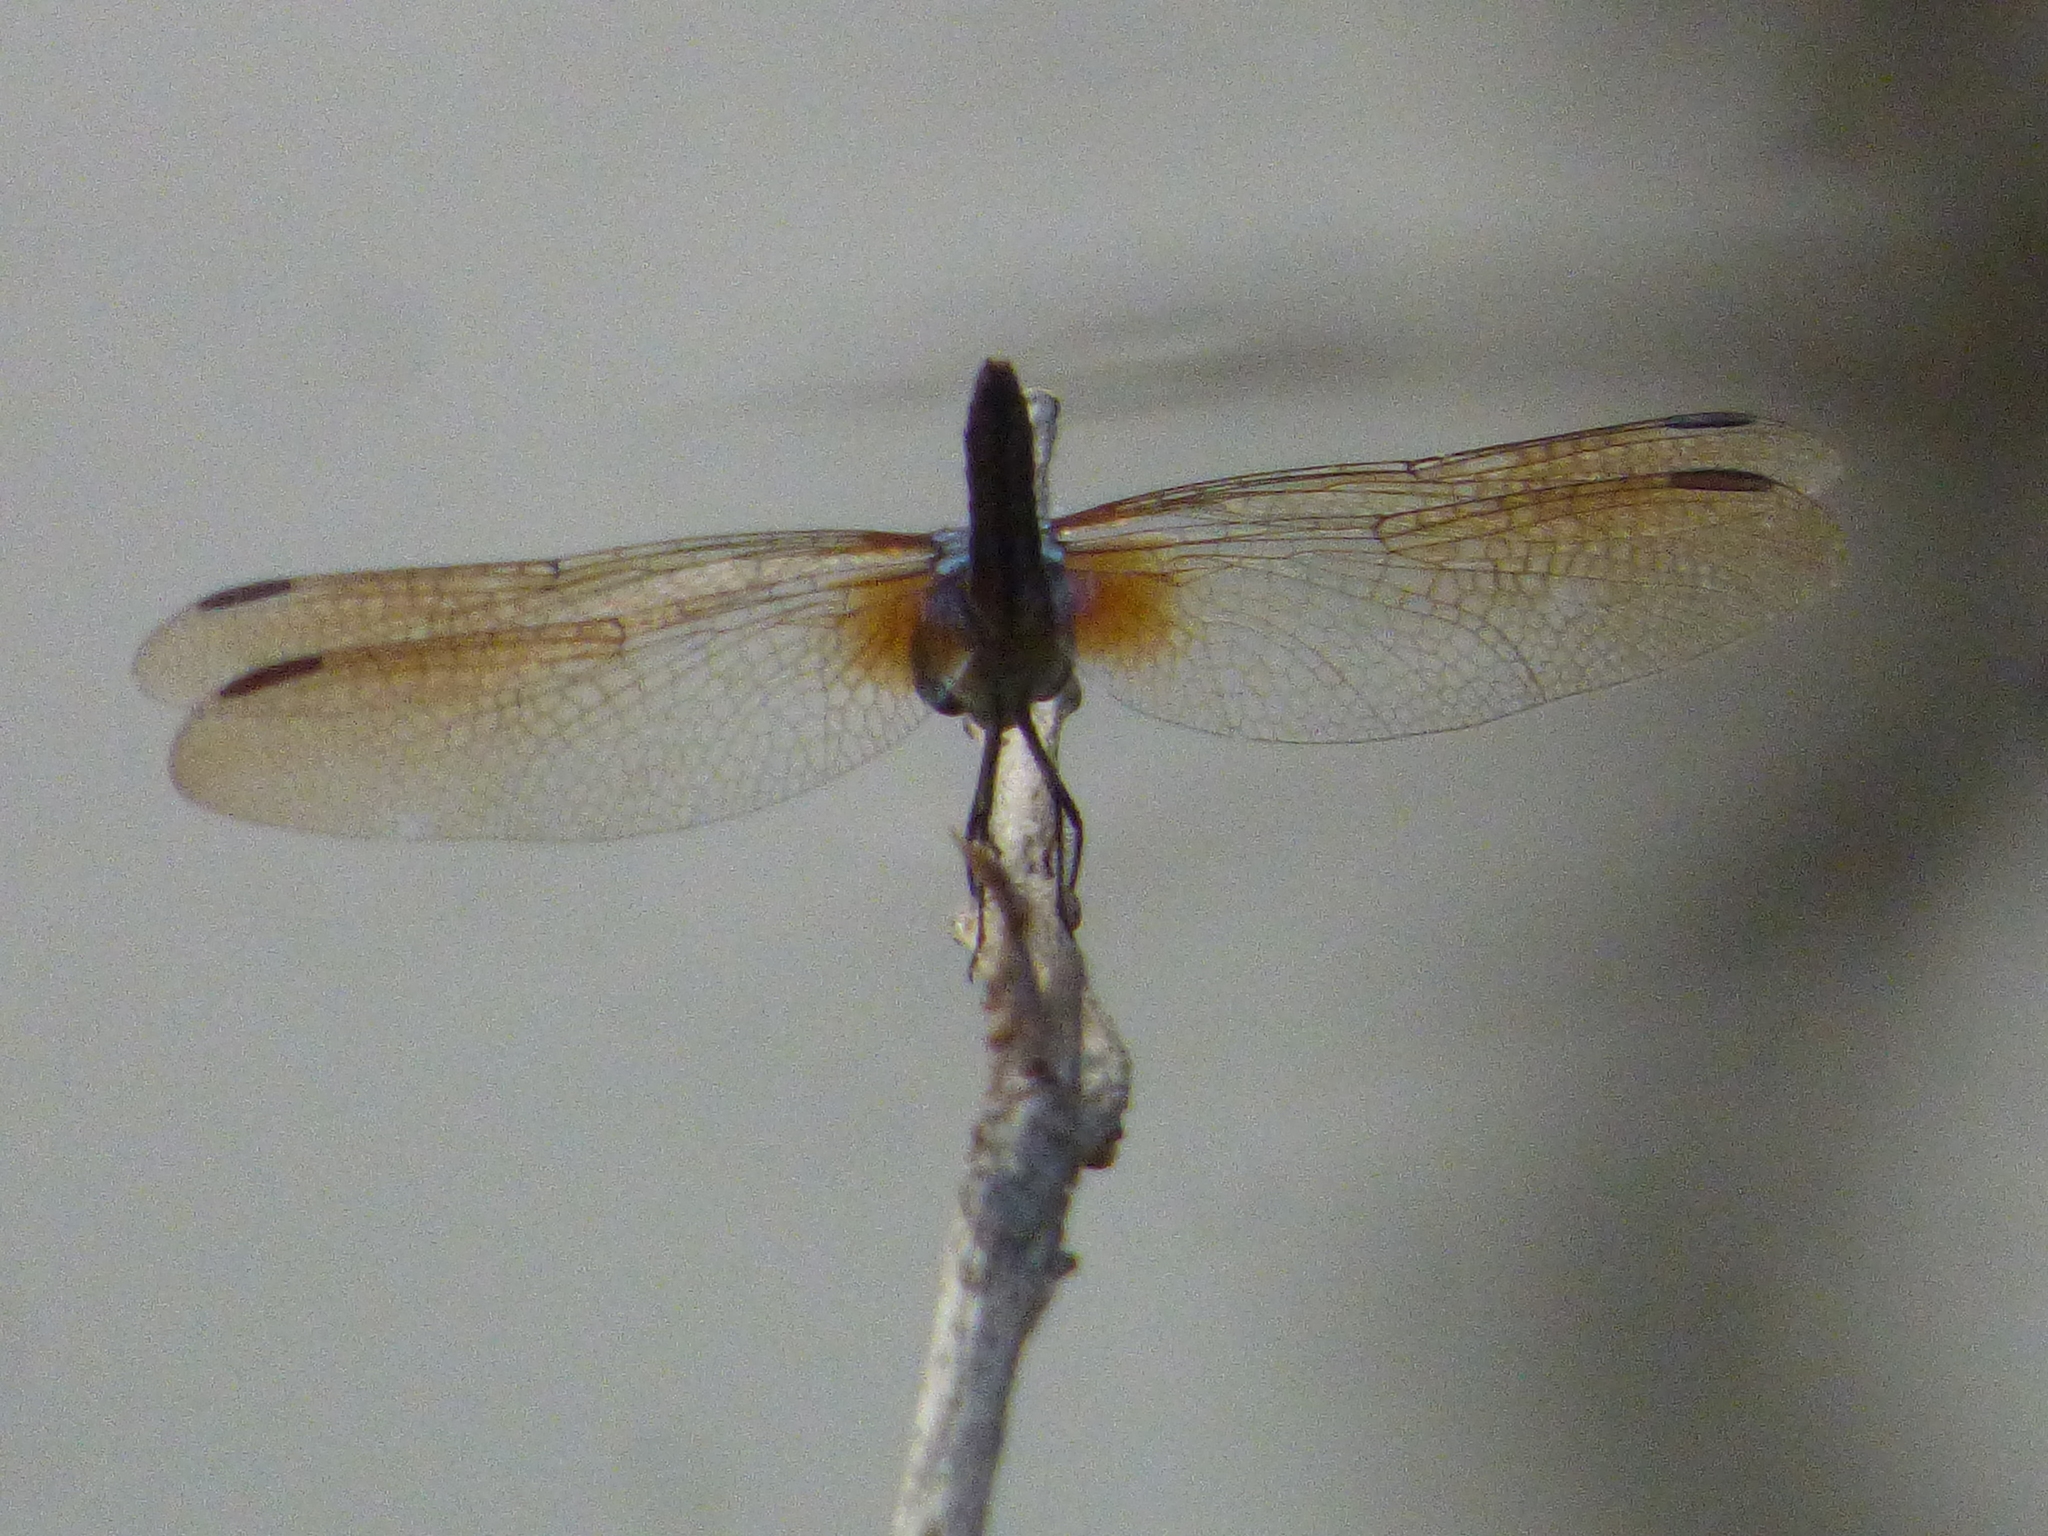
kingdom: Animalia
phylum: Arthropoda
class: Insecta
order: Odonata
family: Libellulidae
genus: Pachydiplax
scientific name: Pachydiplax longipennis
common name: Blue dasher
